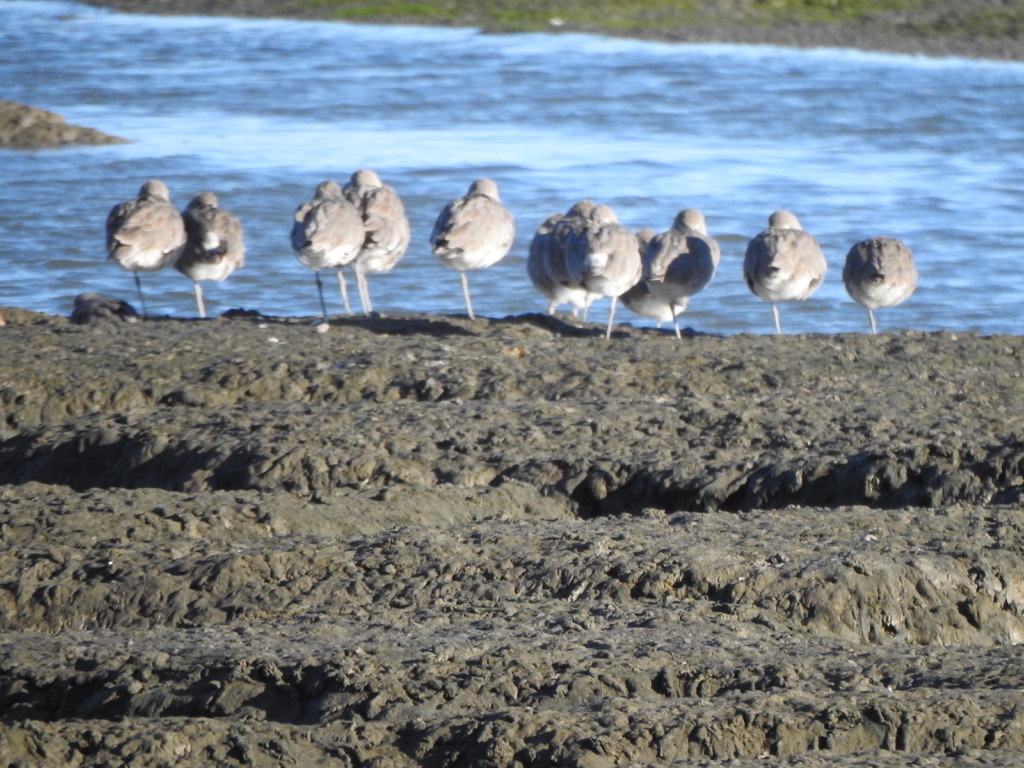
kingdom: Animalia
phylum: Chordata
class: Aves
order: Charadriiformes
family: Scolopacidae
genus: Tringa
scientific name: Tringa semipalmata
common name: Willet
